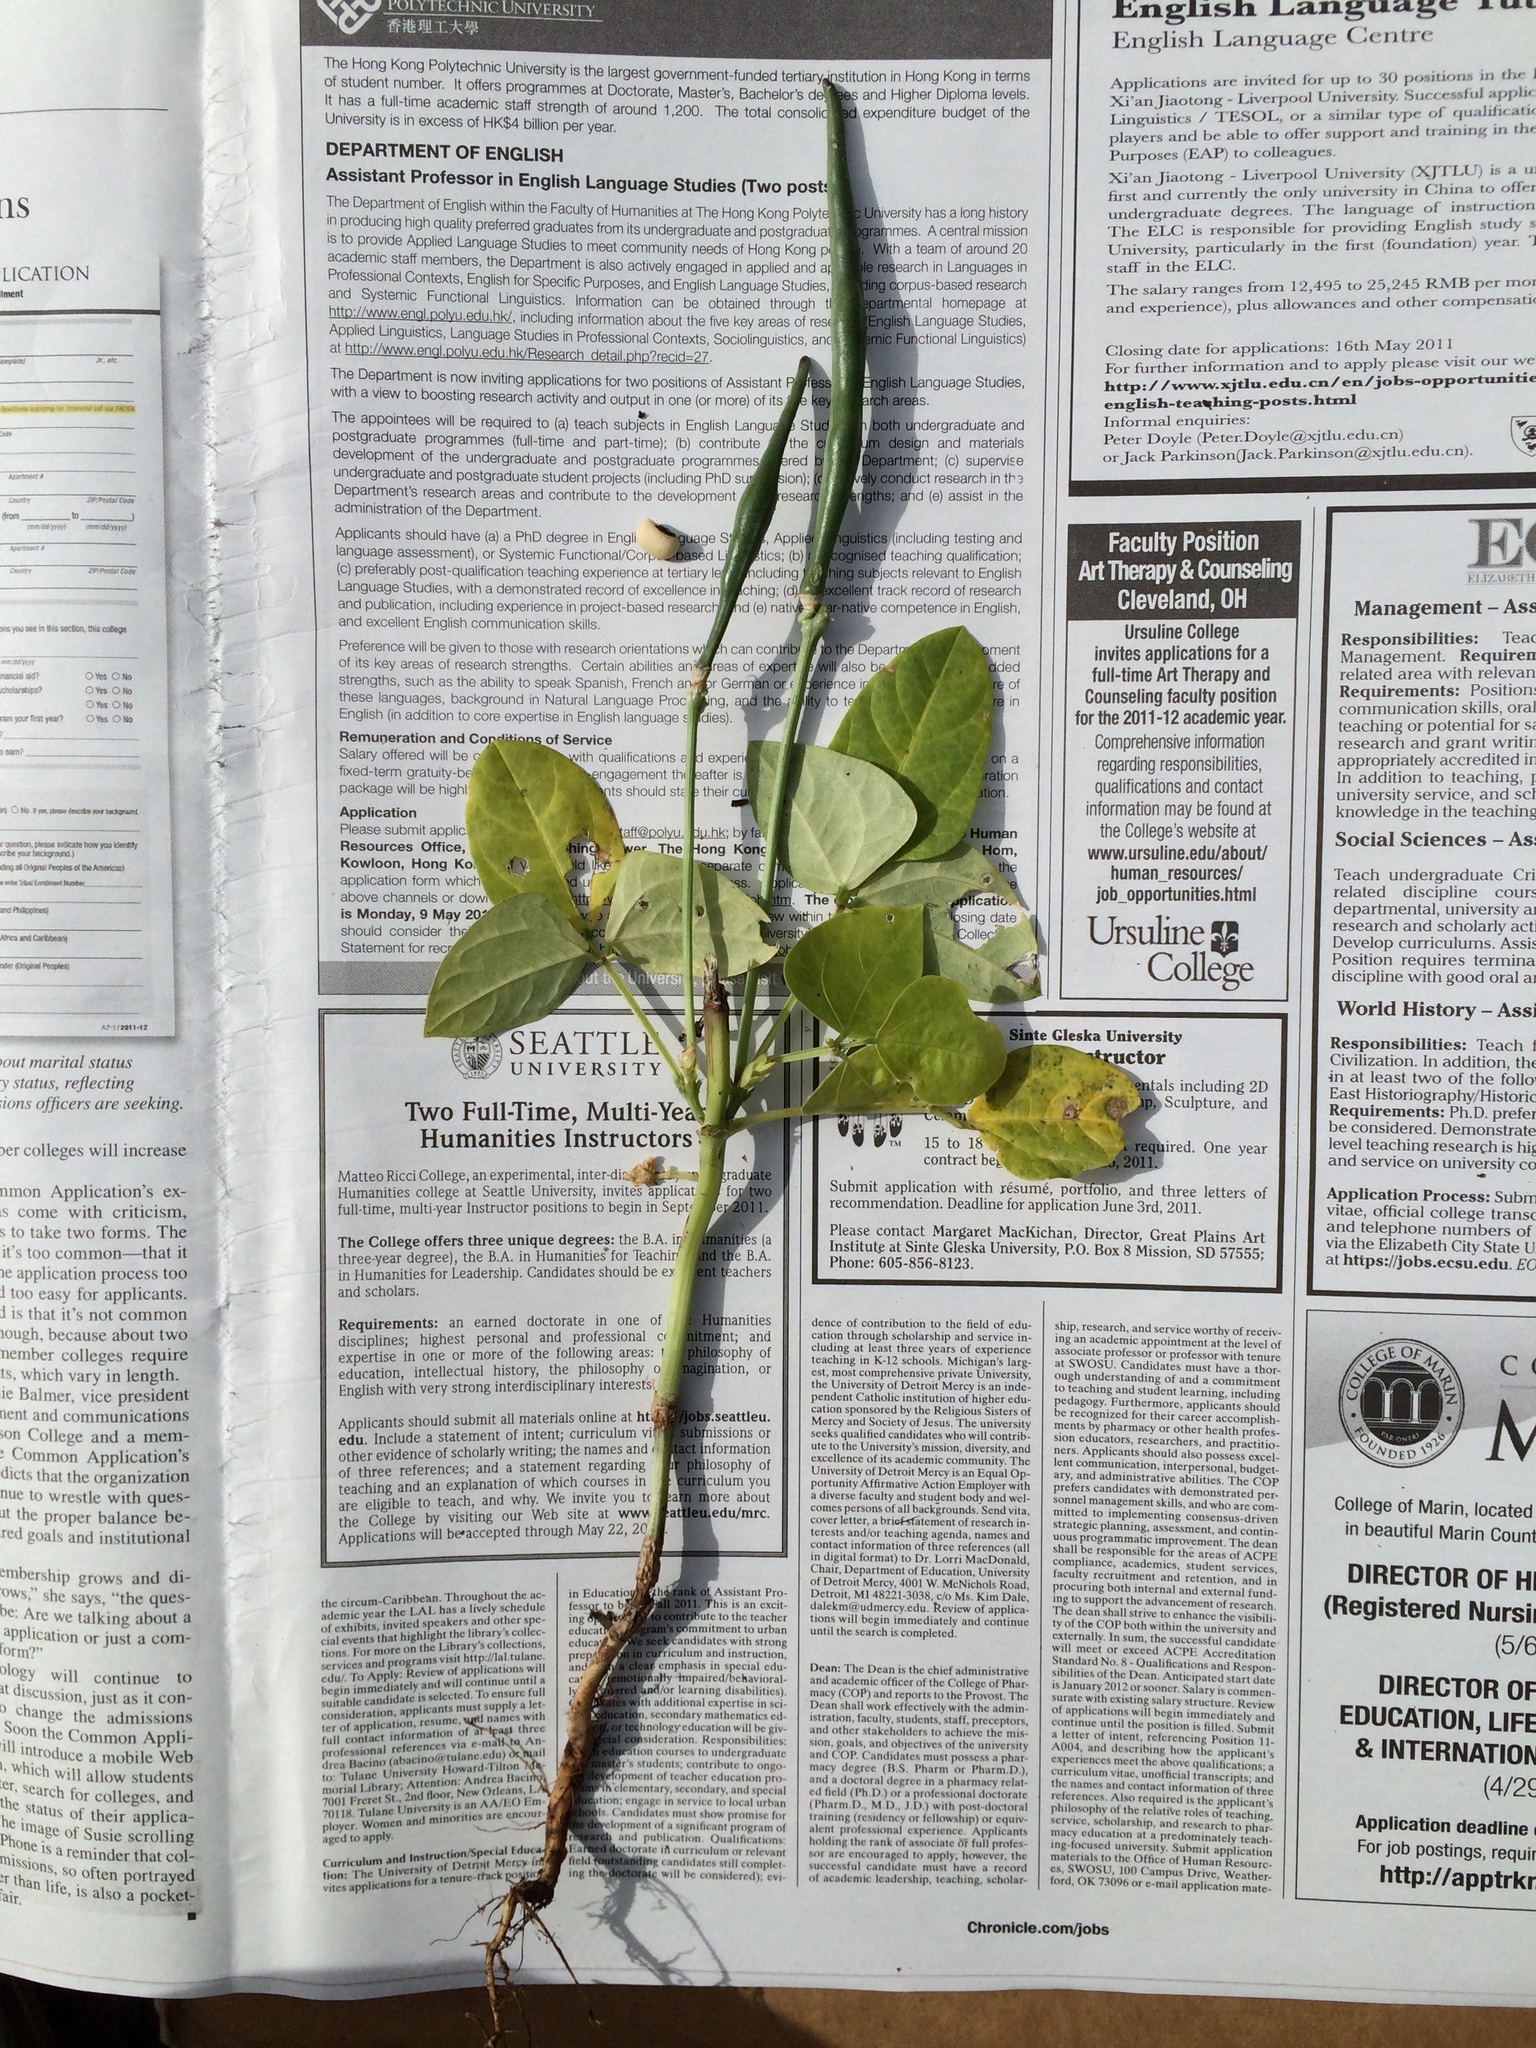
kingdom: Plantae
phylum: Tracheophyta
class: Magnoliopsida
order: Fabales
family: Fabaceae
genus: Vigna
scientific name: Vigna unguiculata
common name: Cowpea
